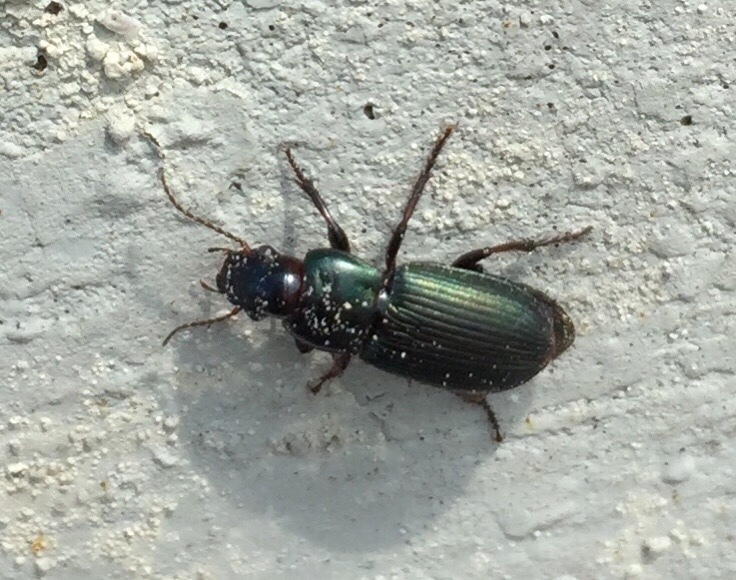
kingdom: Animalia
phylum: Arthropoda
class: Insecta
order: Coleoptera
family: Carabidae
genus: Harpalus
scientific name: Harpalus affinis
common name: Polychrome harp ground beetle
